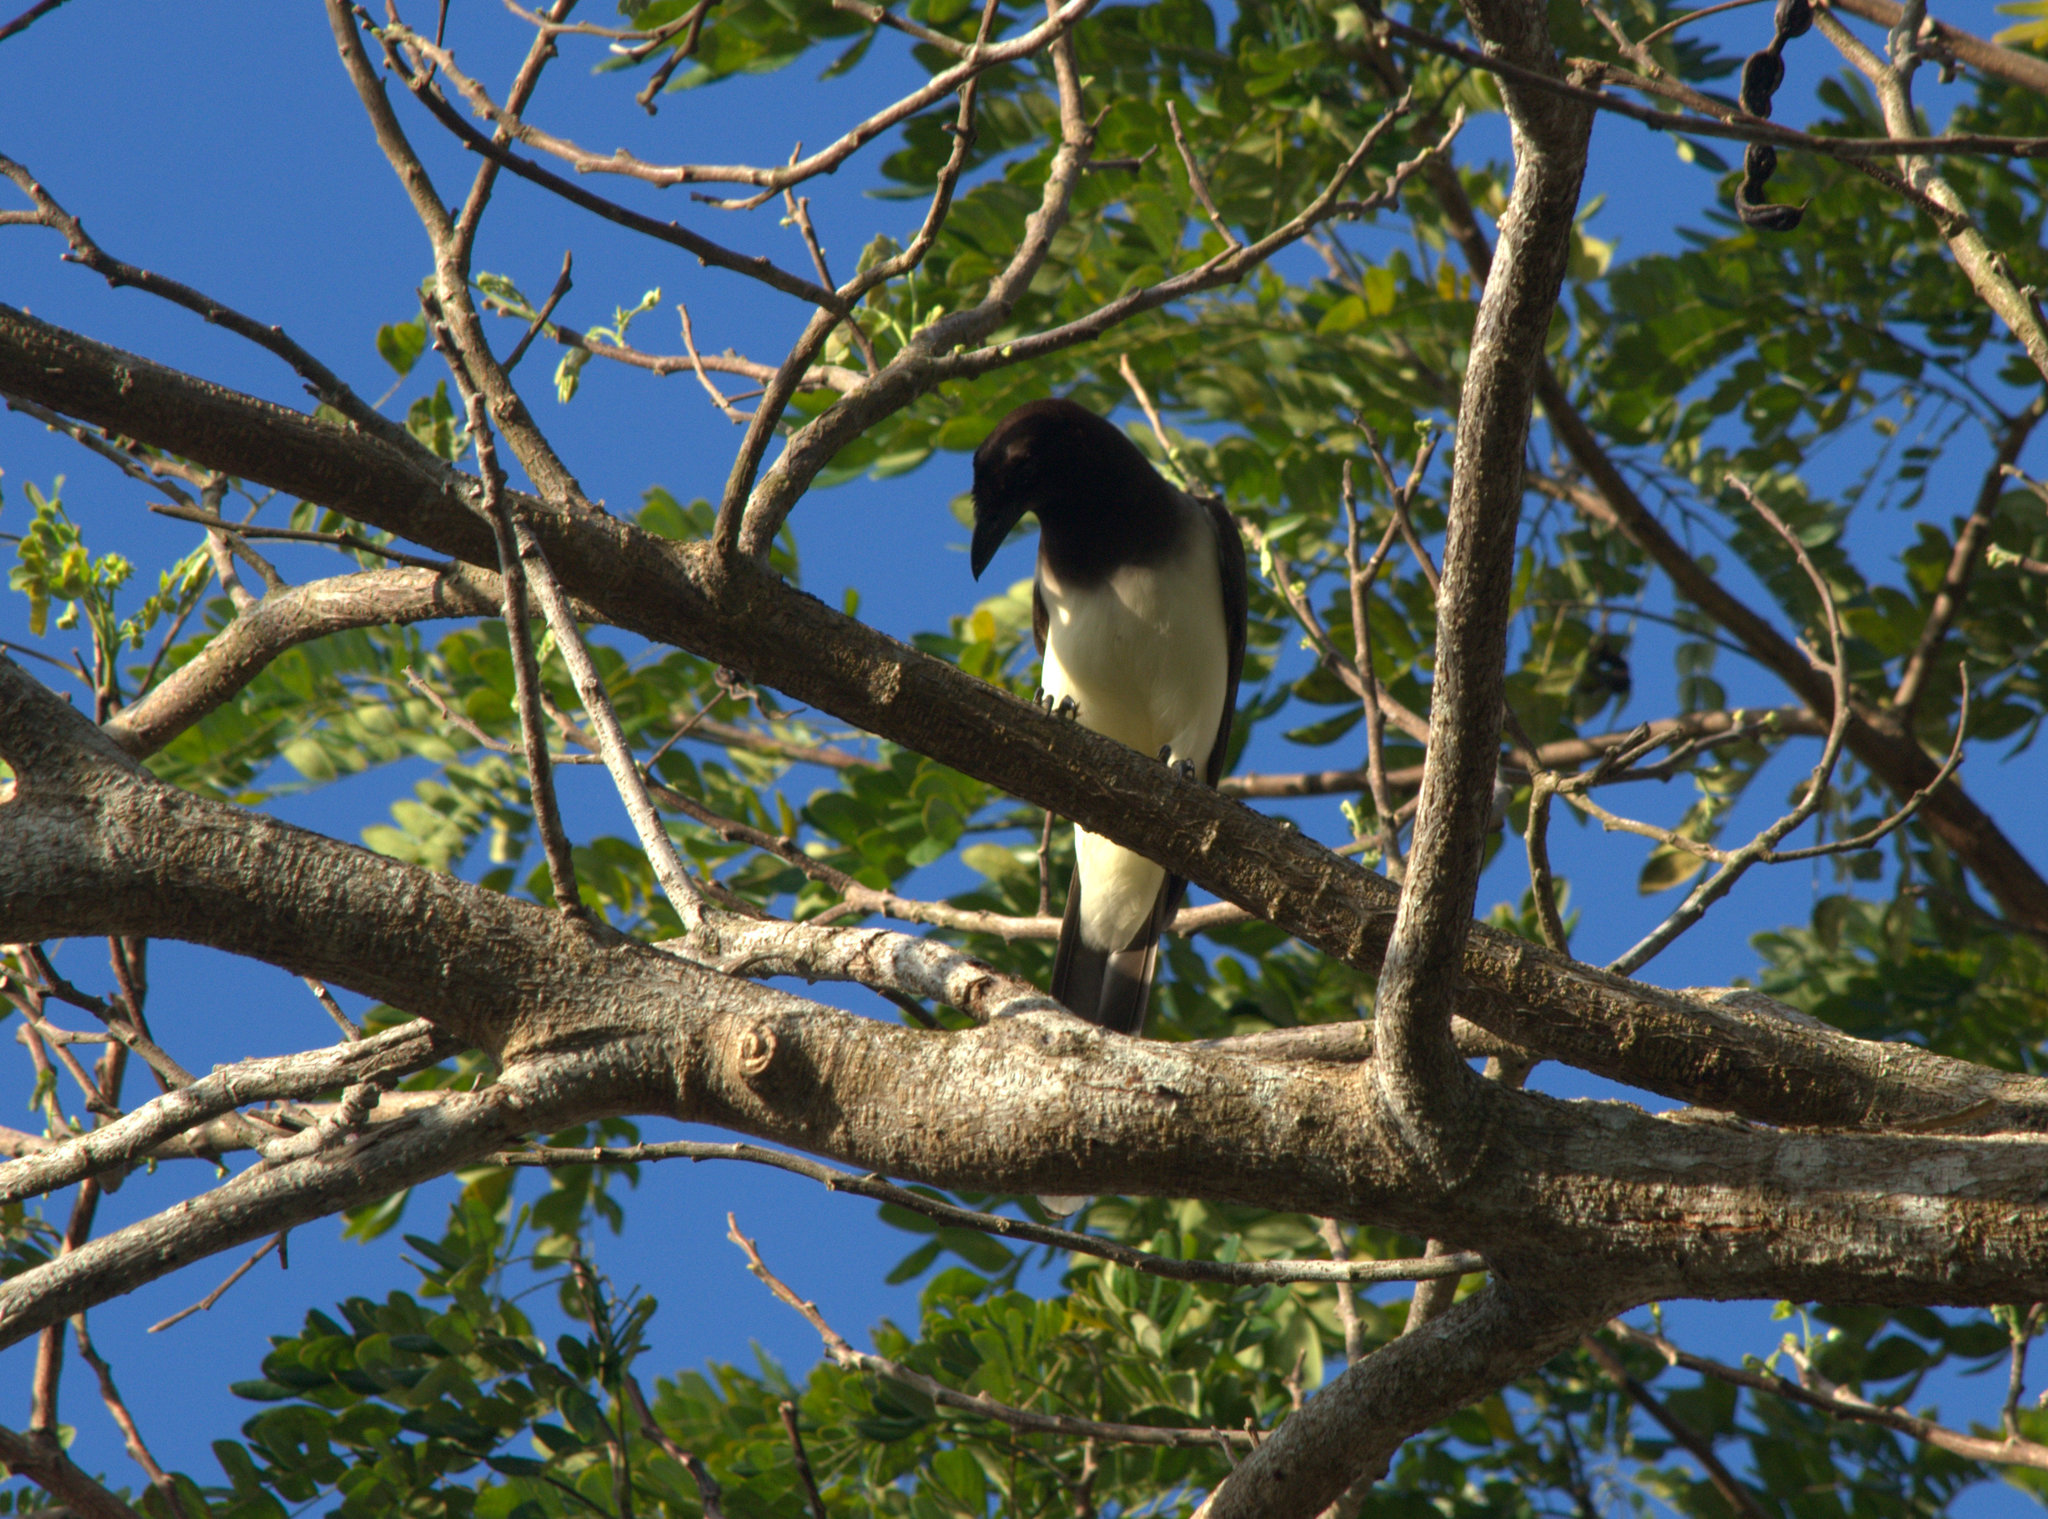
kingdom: Animalia
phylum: Chordata
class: Aves
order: Passeriformes
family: Corvidae
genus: Psilorhinus
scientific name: Psilorhinus morio
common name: Brown jay
